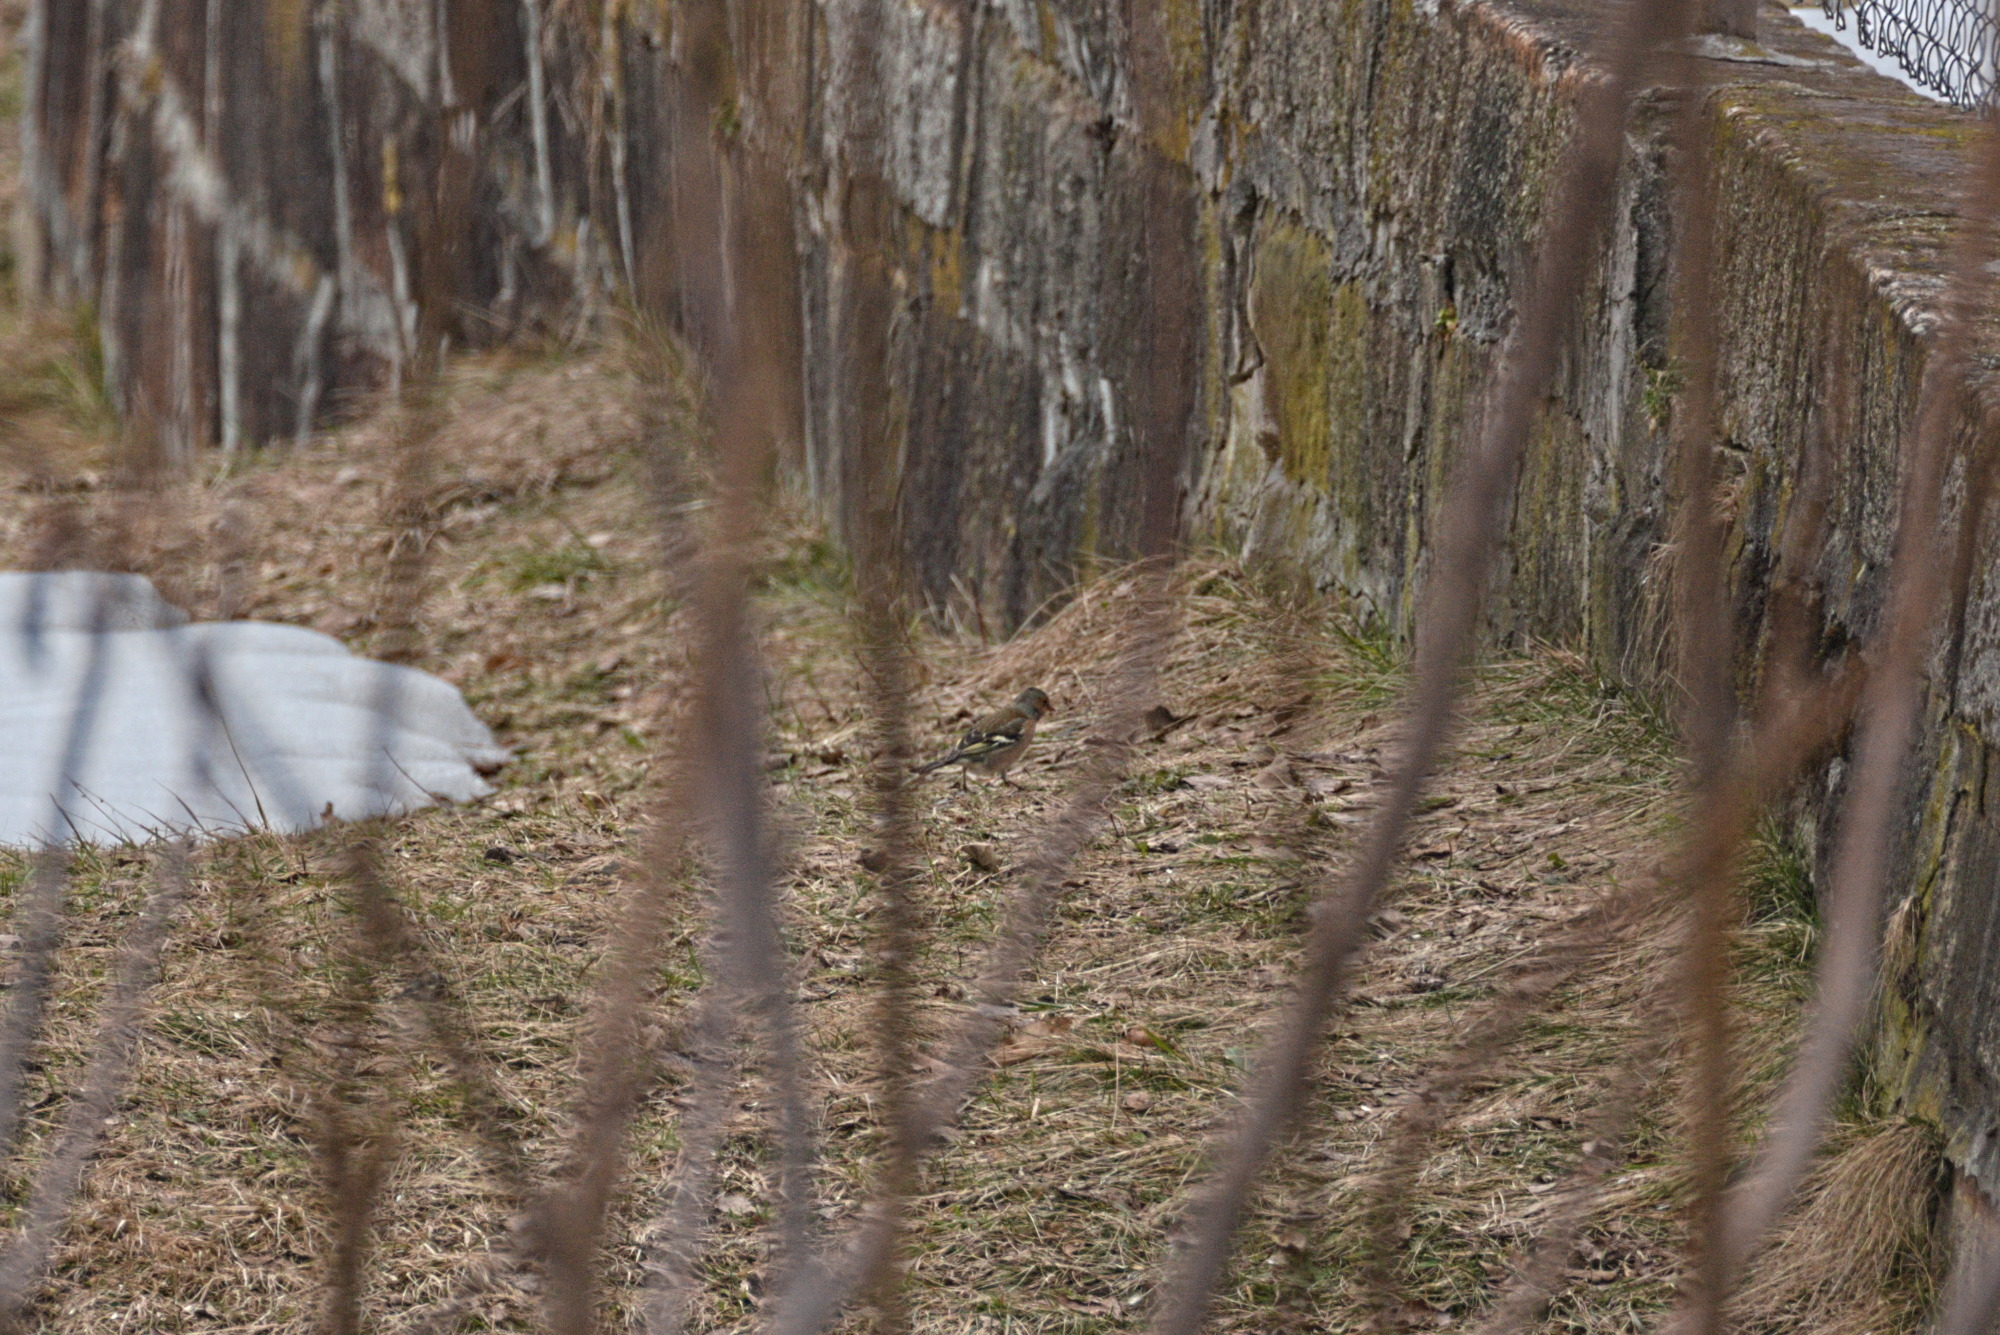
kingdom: Animalia
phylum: Chordata
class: Aves
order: Passeriformes
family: Fringillidae
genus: Fringilla
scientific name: Fringilla coelebs
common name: Common chaffinch
